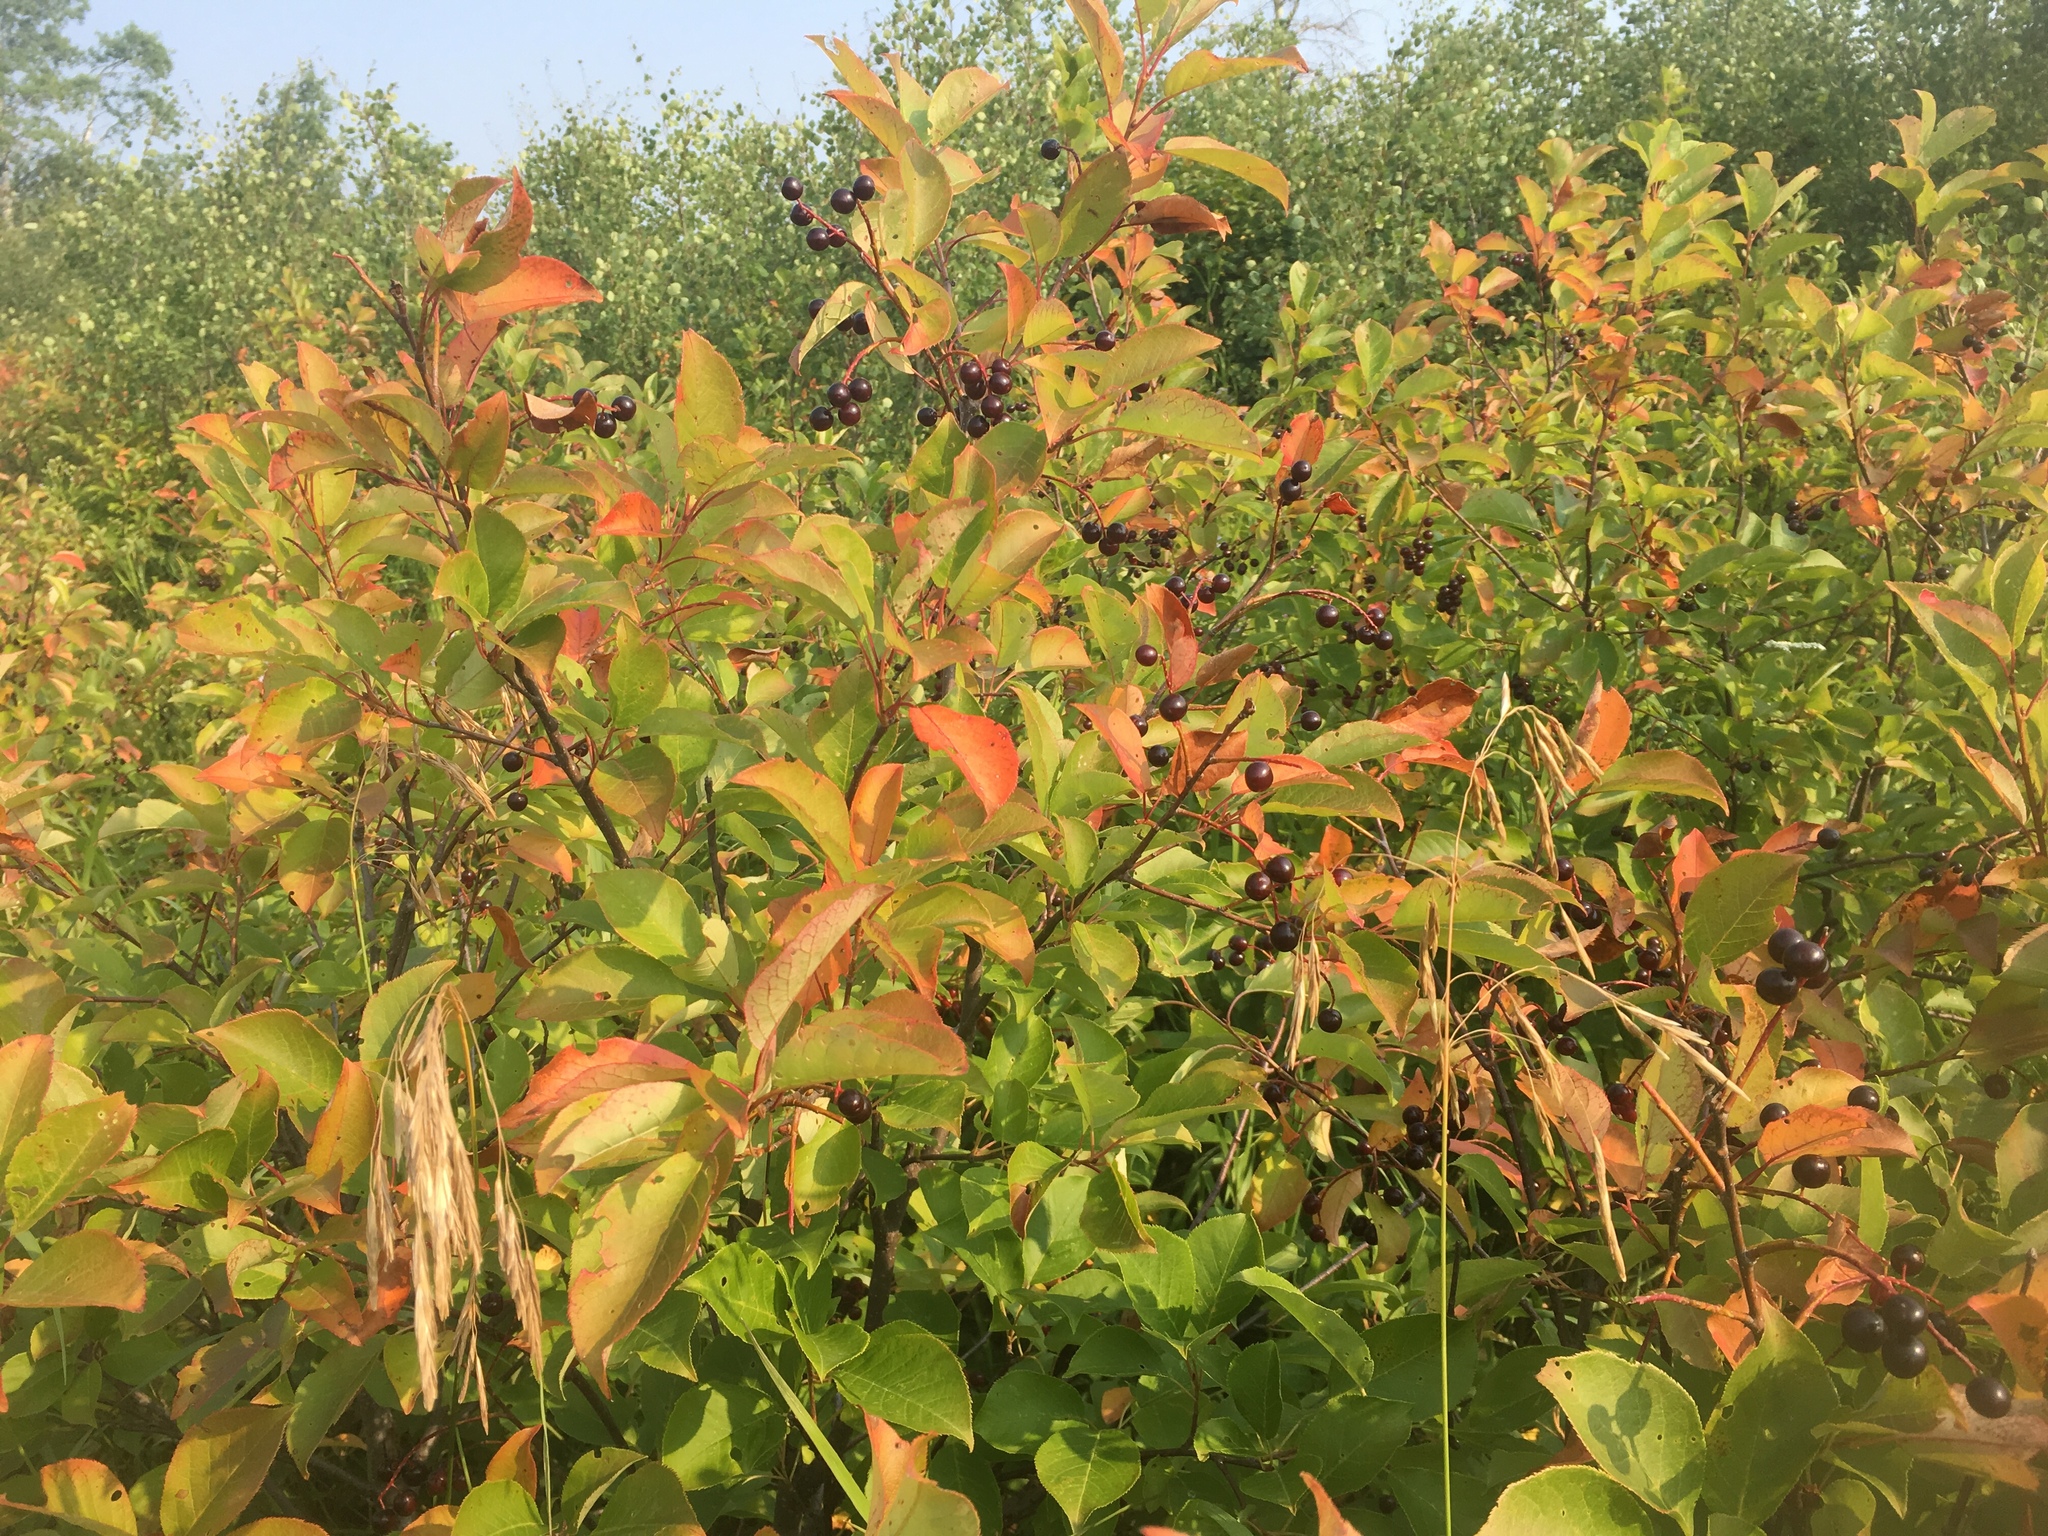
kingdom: Plantae
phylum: Tracheophyta
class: Magnoliopsida
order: Rosales
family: Rosaceae
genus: Prunus
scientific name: Prunus virginiana
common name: Chokecherry
